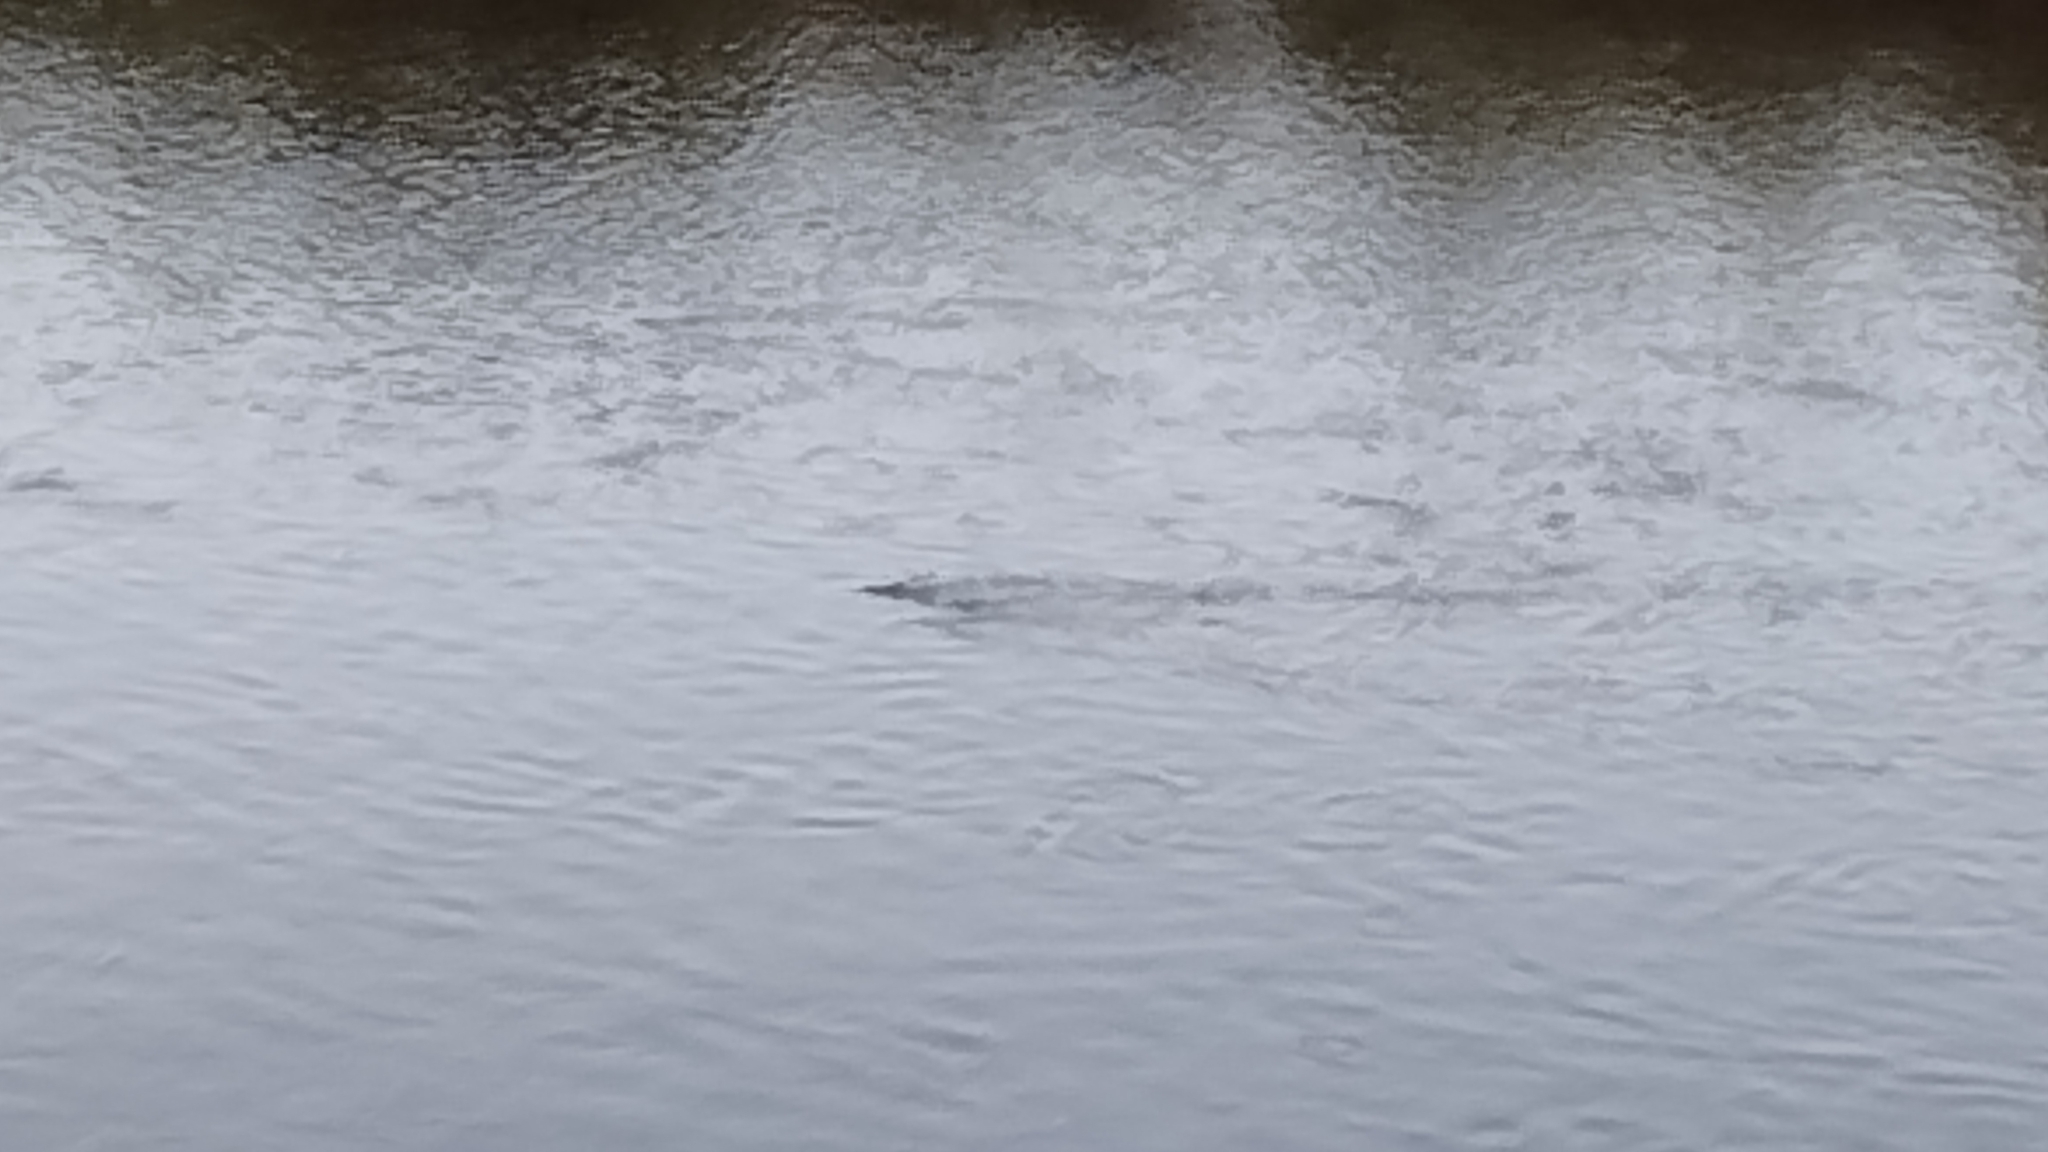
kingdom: Animalia
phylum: Chordata
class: Mammalia
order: Artiodactyla
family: Hippopotamidae
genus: Hippopotamus
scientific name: Hippopotamus amphibius
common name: Common hippopotamus
